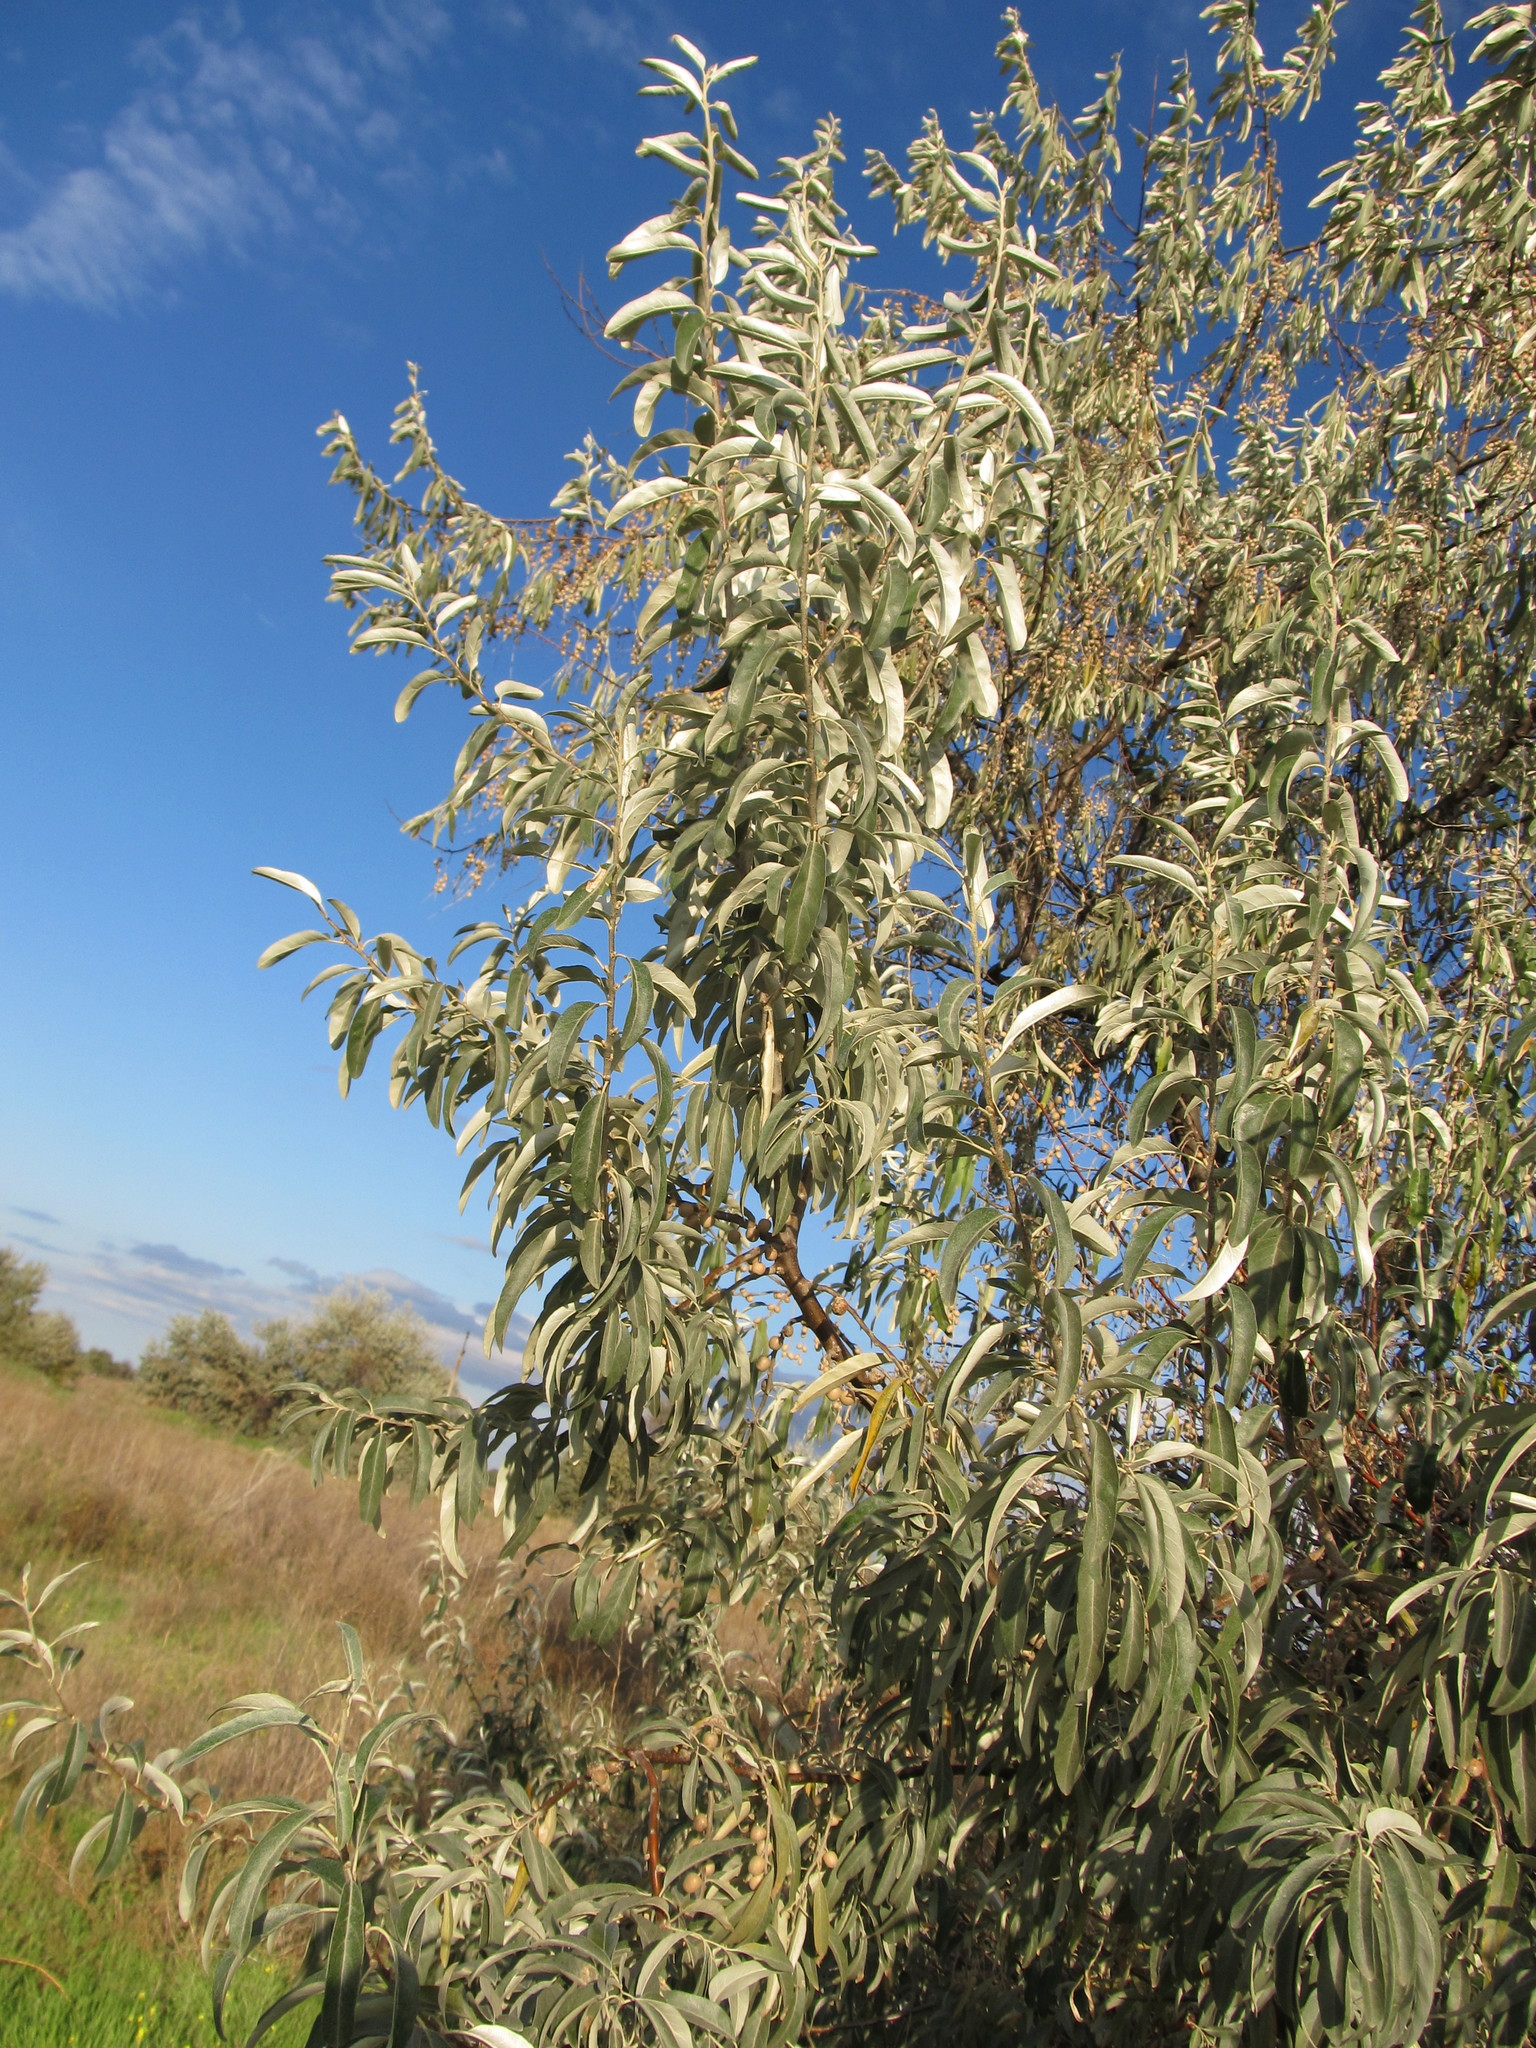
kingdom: Plantae
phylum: Tracheophyta
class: Magnoliopsida
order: Rosales
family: Elaeagnaceae
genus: Elaeagnus
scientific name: Elaeagnus angustifolia
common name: Russian olive
